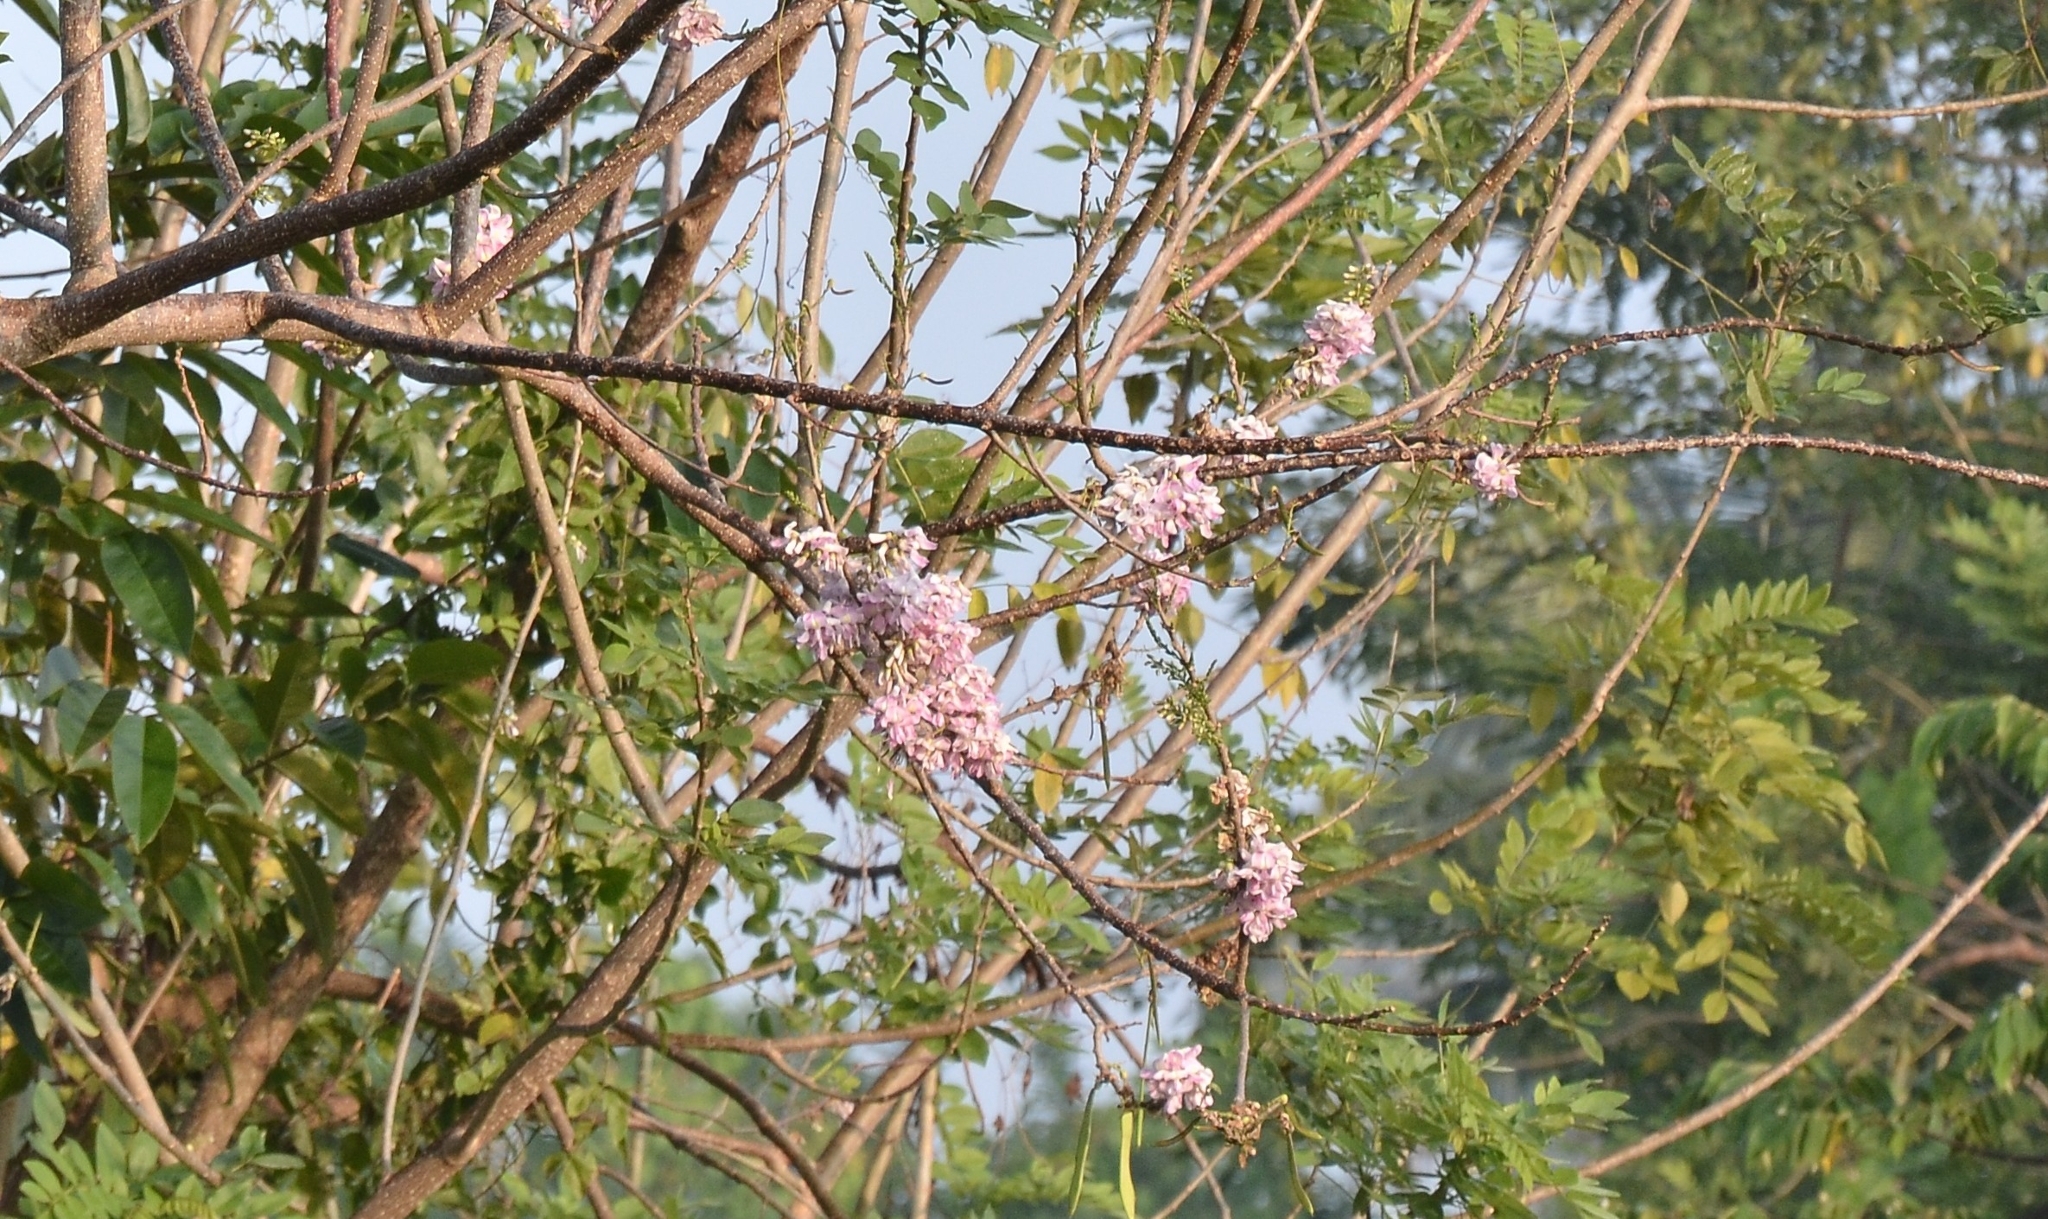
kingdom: Plantae
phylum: Tracheophyta
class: Magnoliopsida
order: Fabales
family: Fabaceae
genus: Gliricidia
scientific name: Gliricidia sepium
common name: Quickstick
